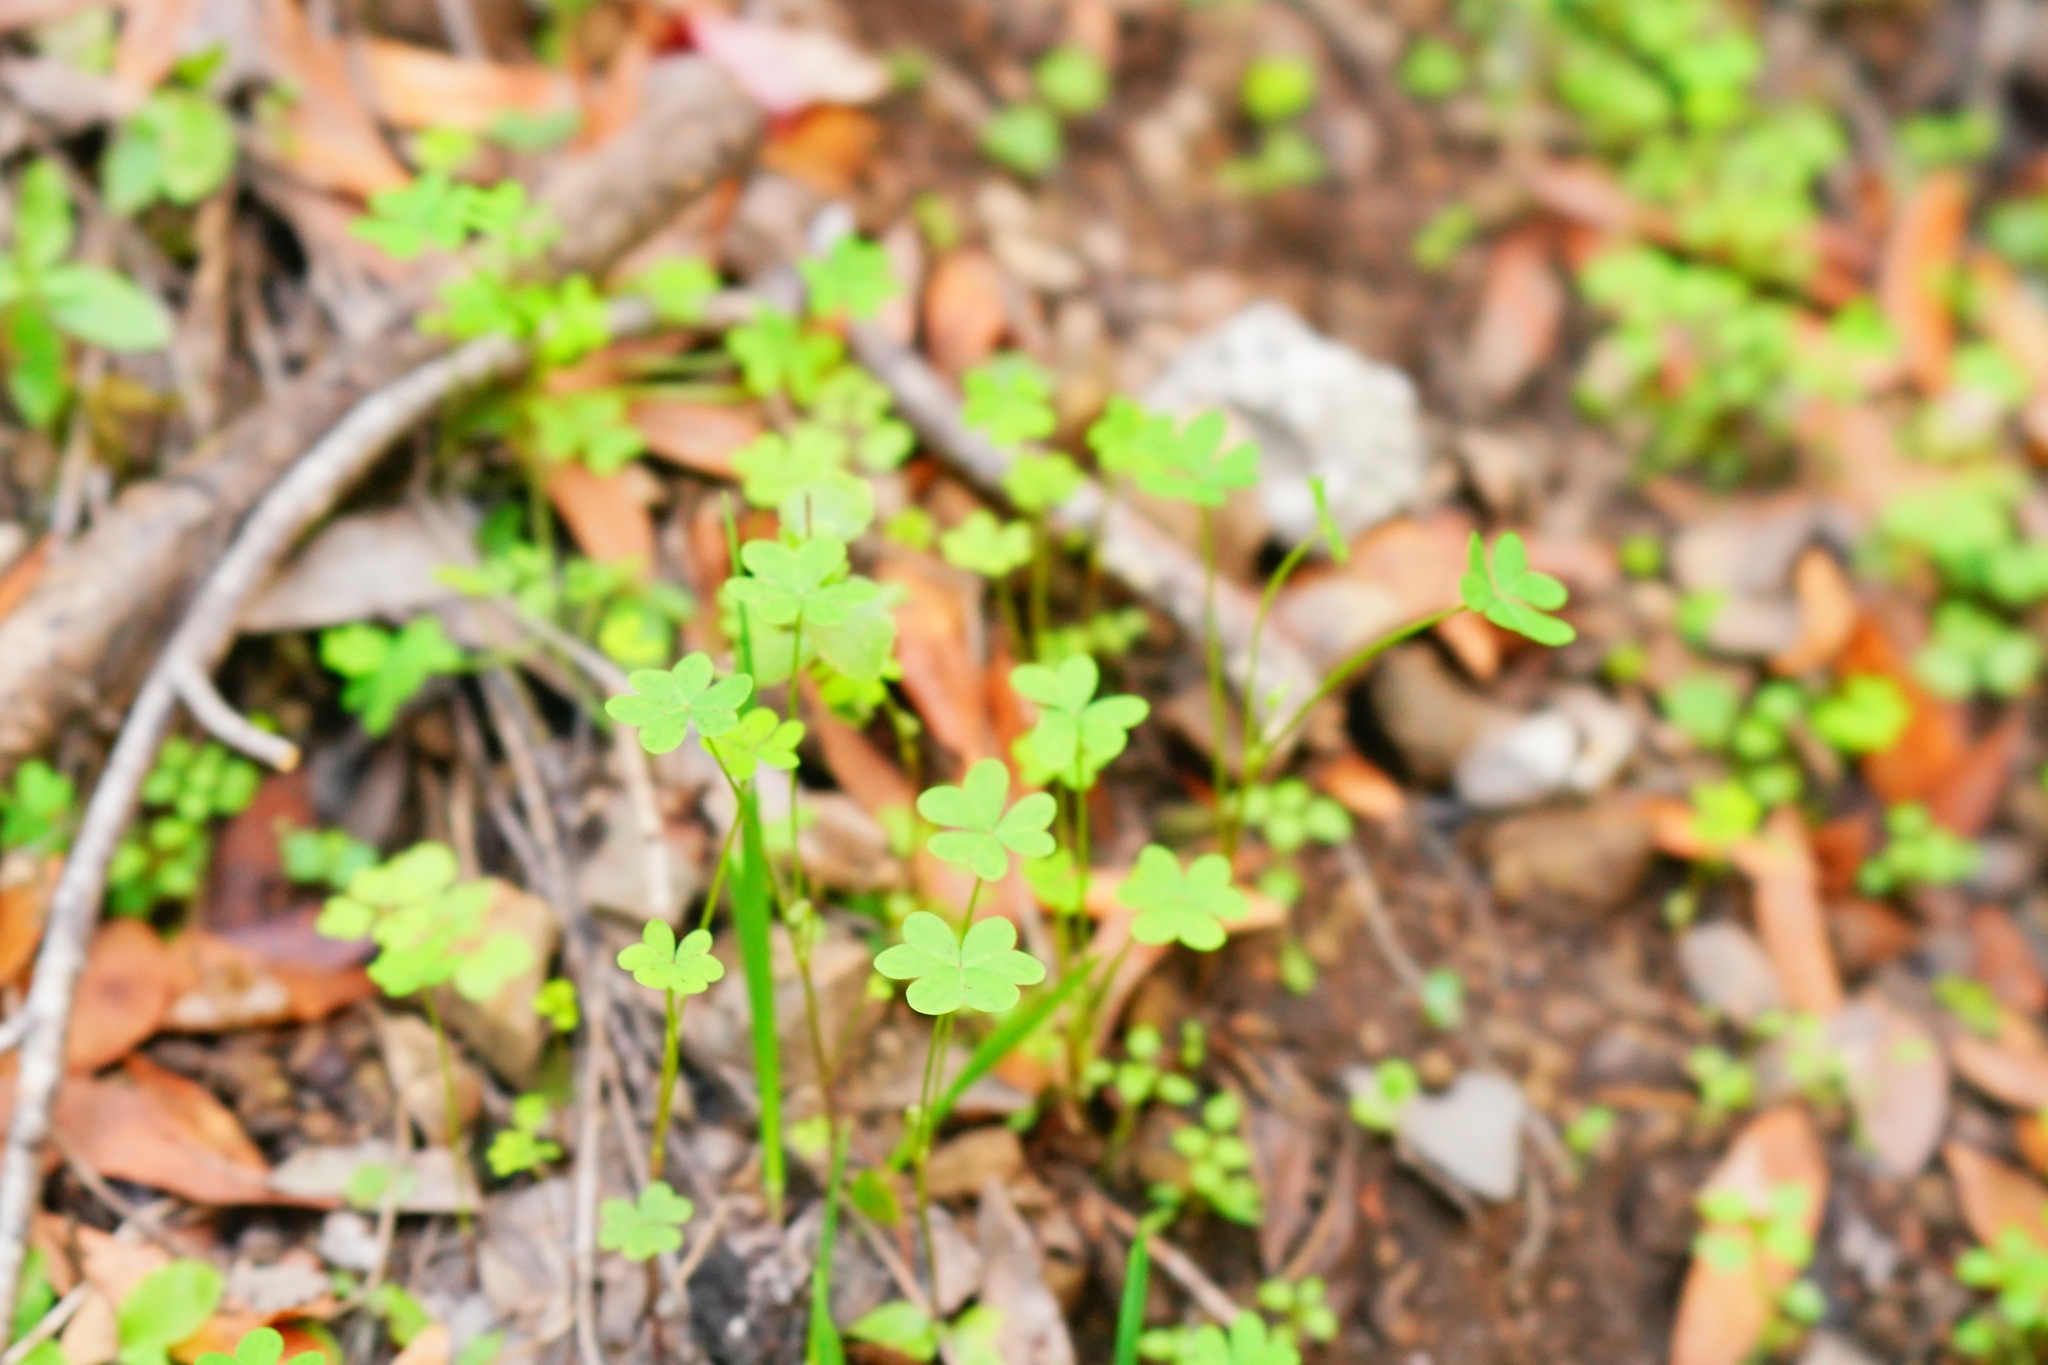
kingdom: Plantae
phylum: Tracheophyta
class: Magnoliopsida
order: Oxalidales
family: Oxalidaceae
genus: Oxalis
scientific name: Oxalis pes-caprae
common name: Bermuda-buttercup
